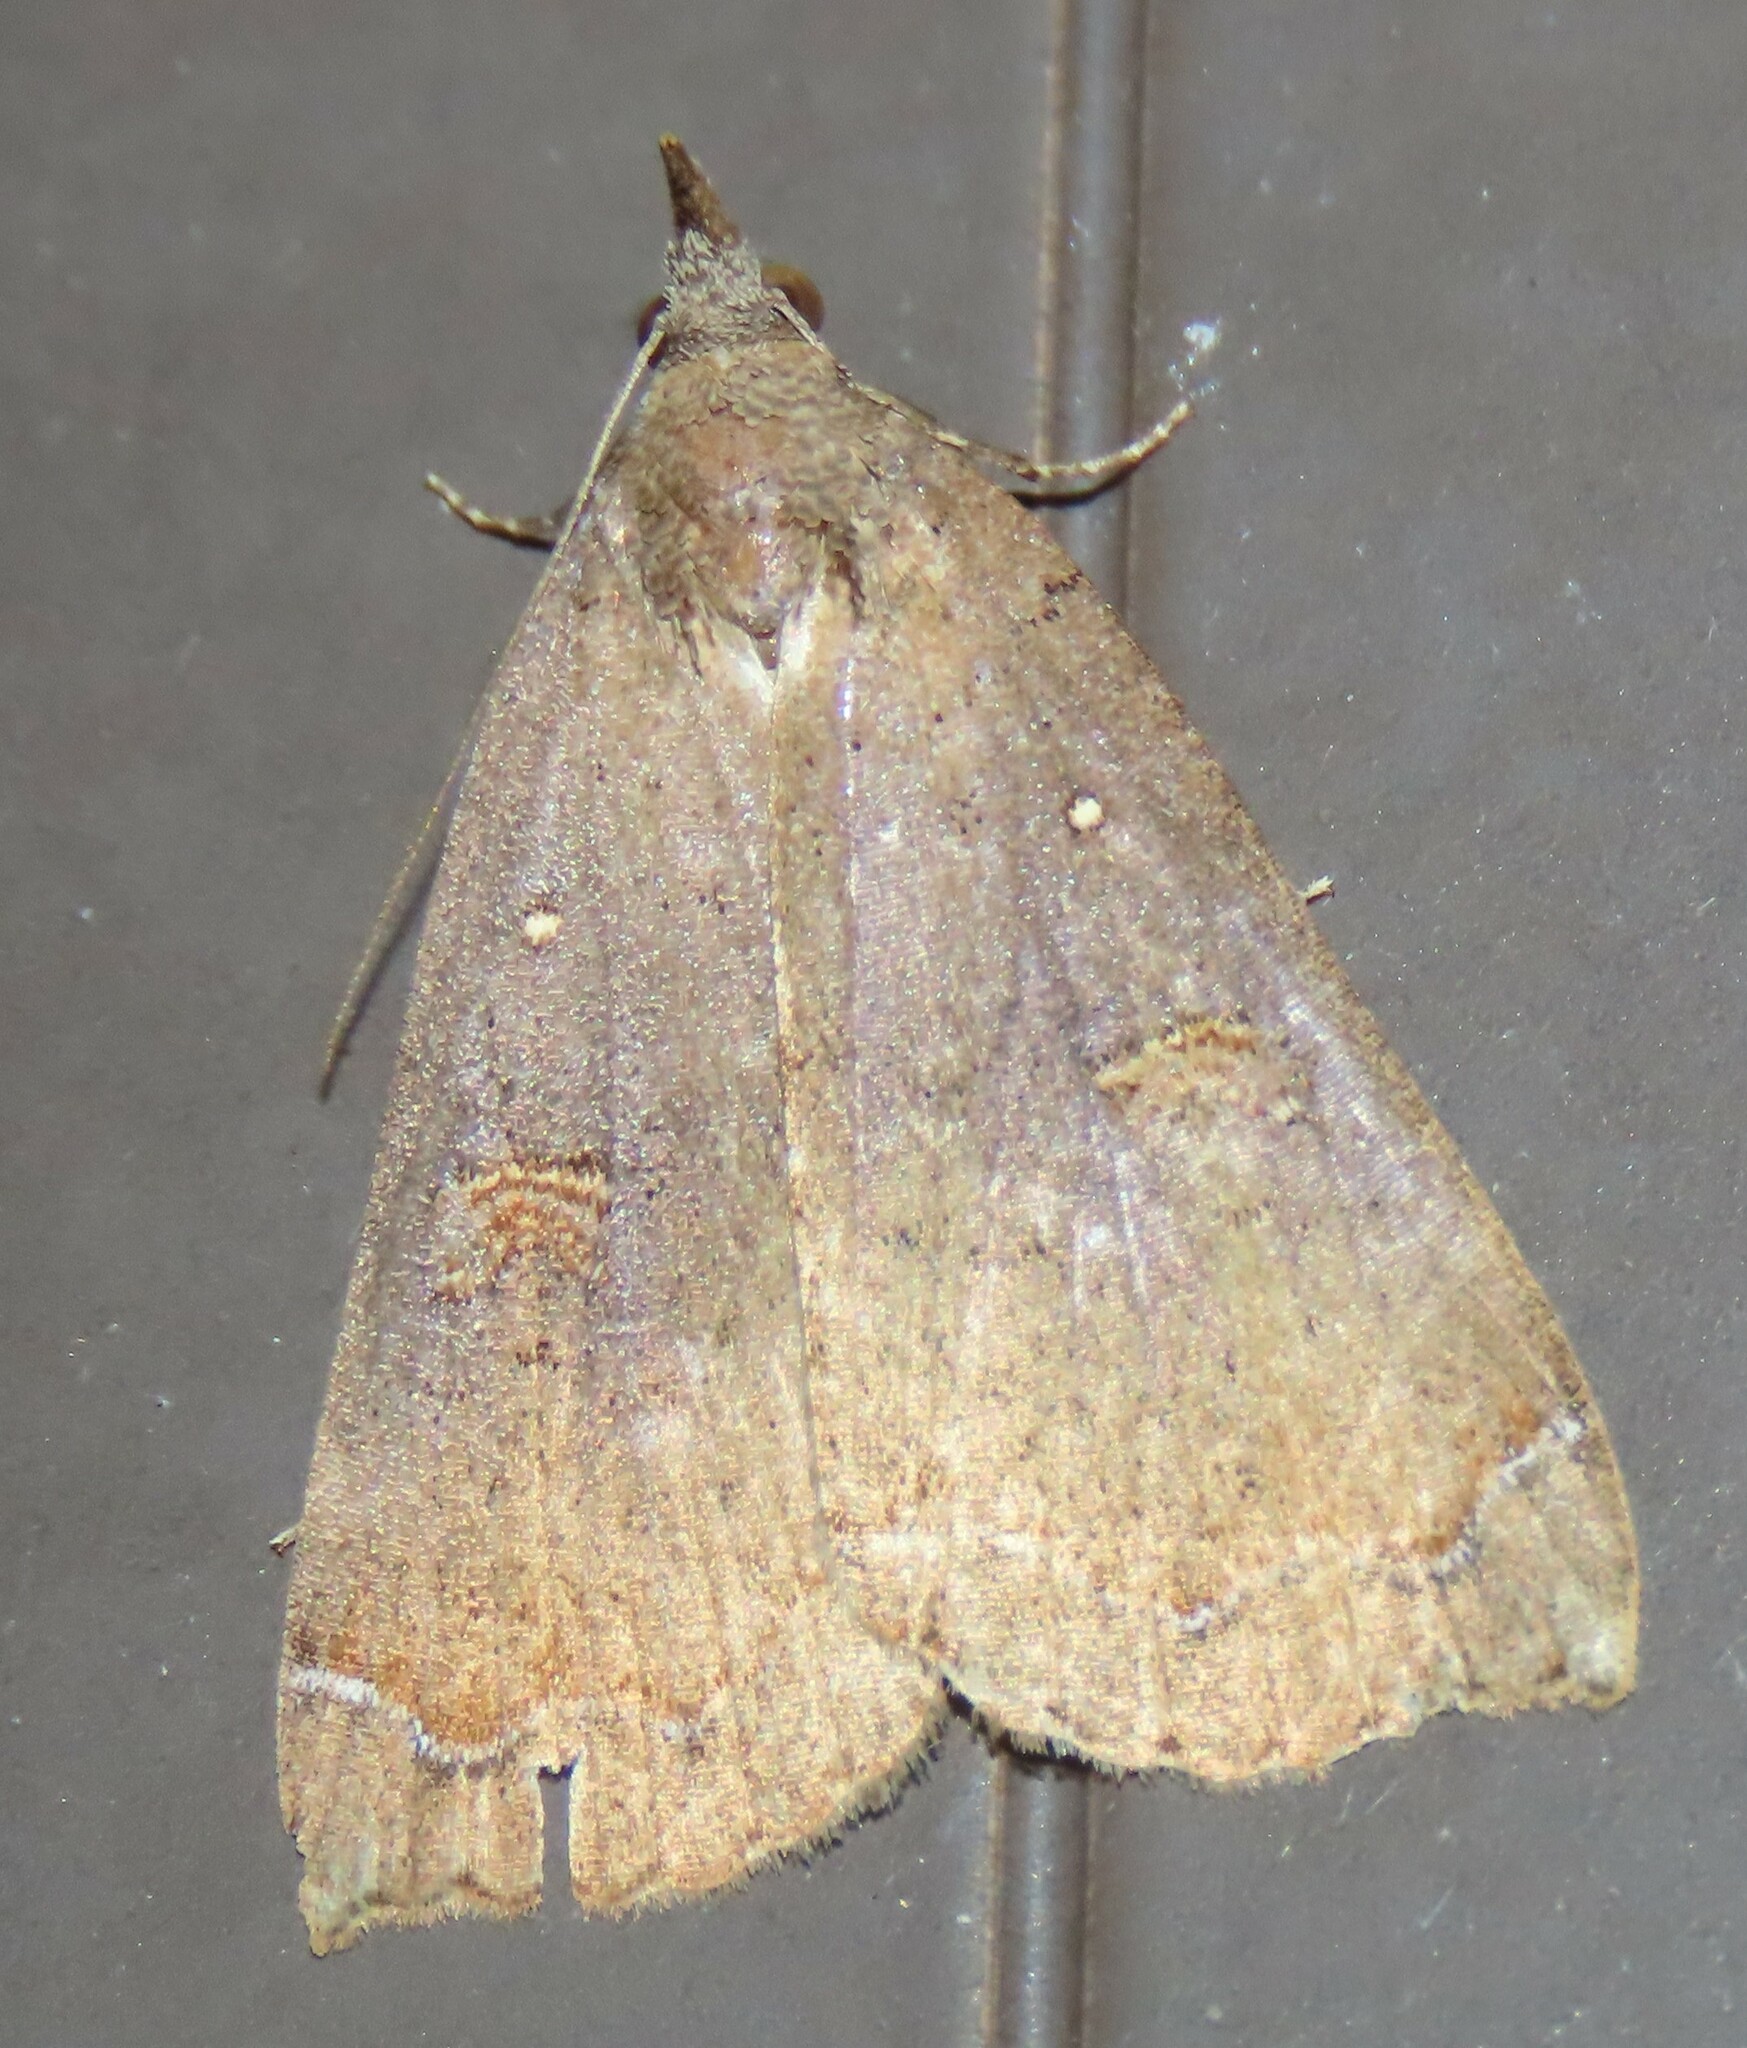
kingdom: Animalia
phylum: Arthropoda
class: Insecta
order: Lepidoptera
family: Erebidae
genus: Rhapsa
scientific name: Rhapsa scotosialis
